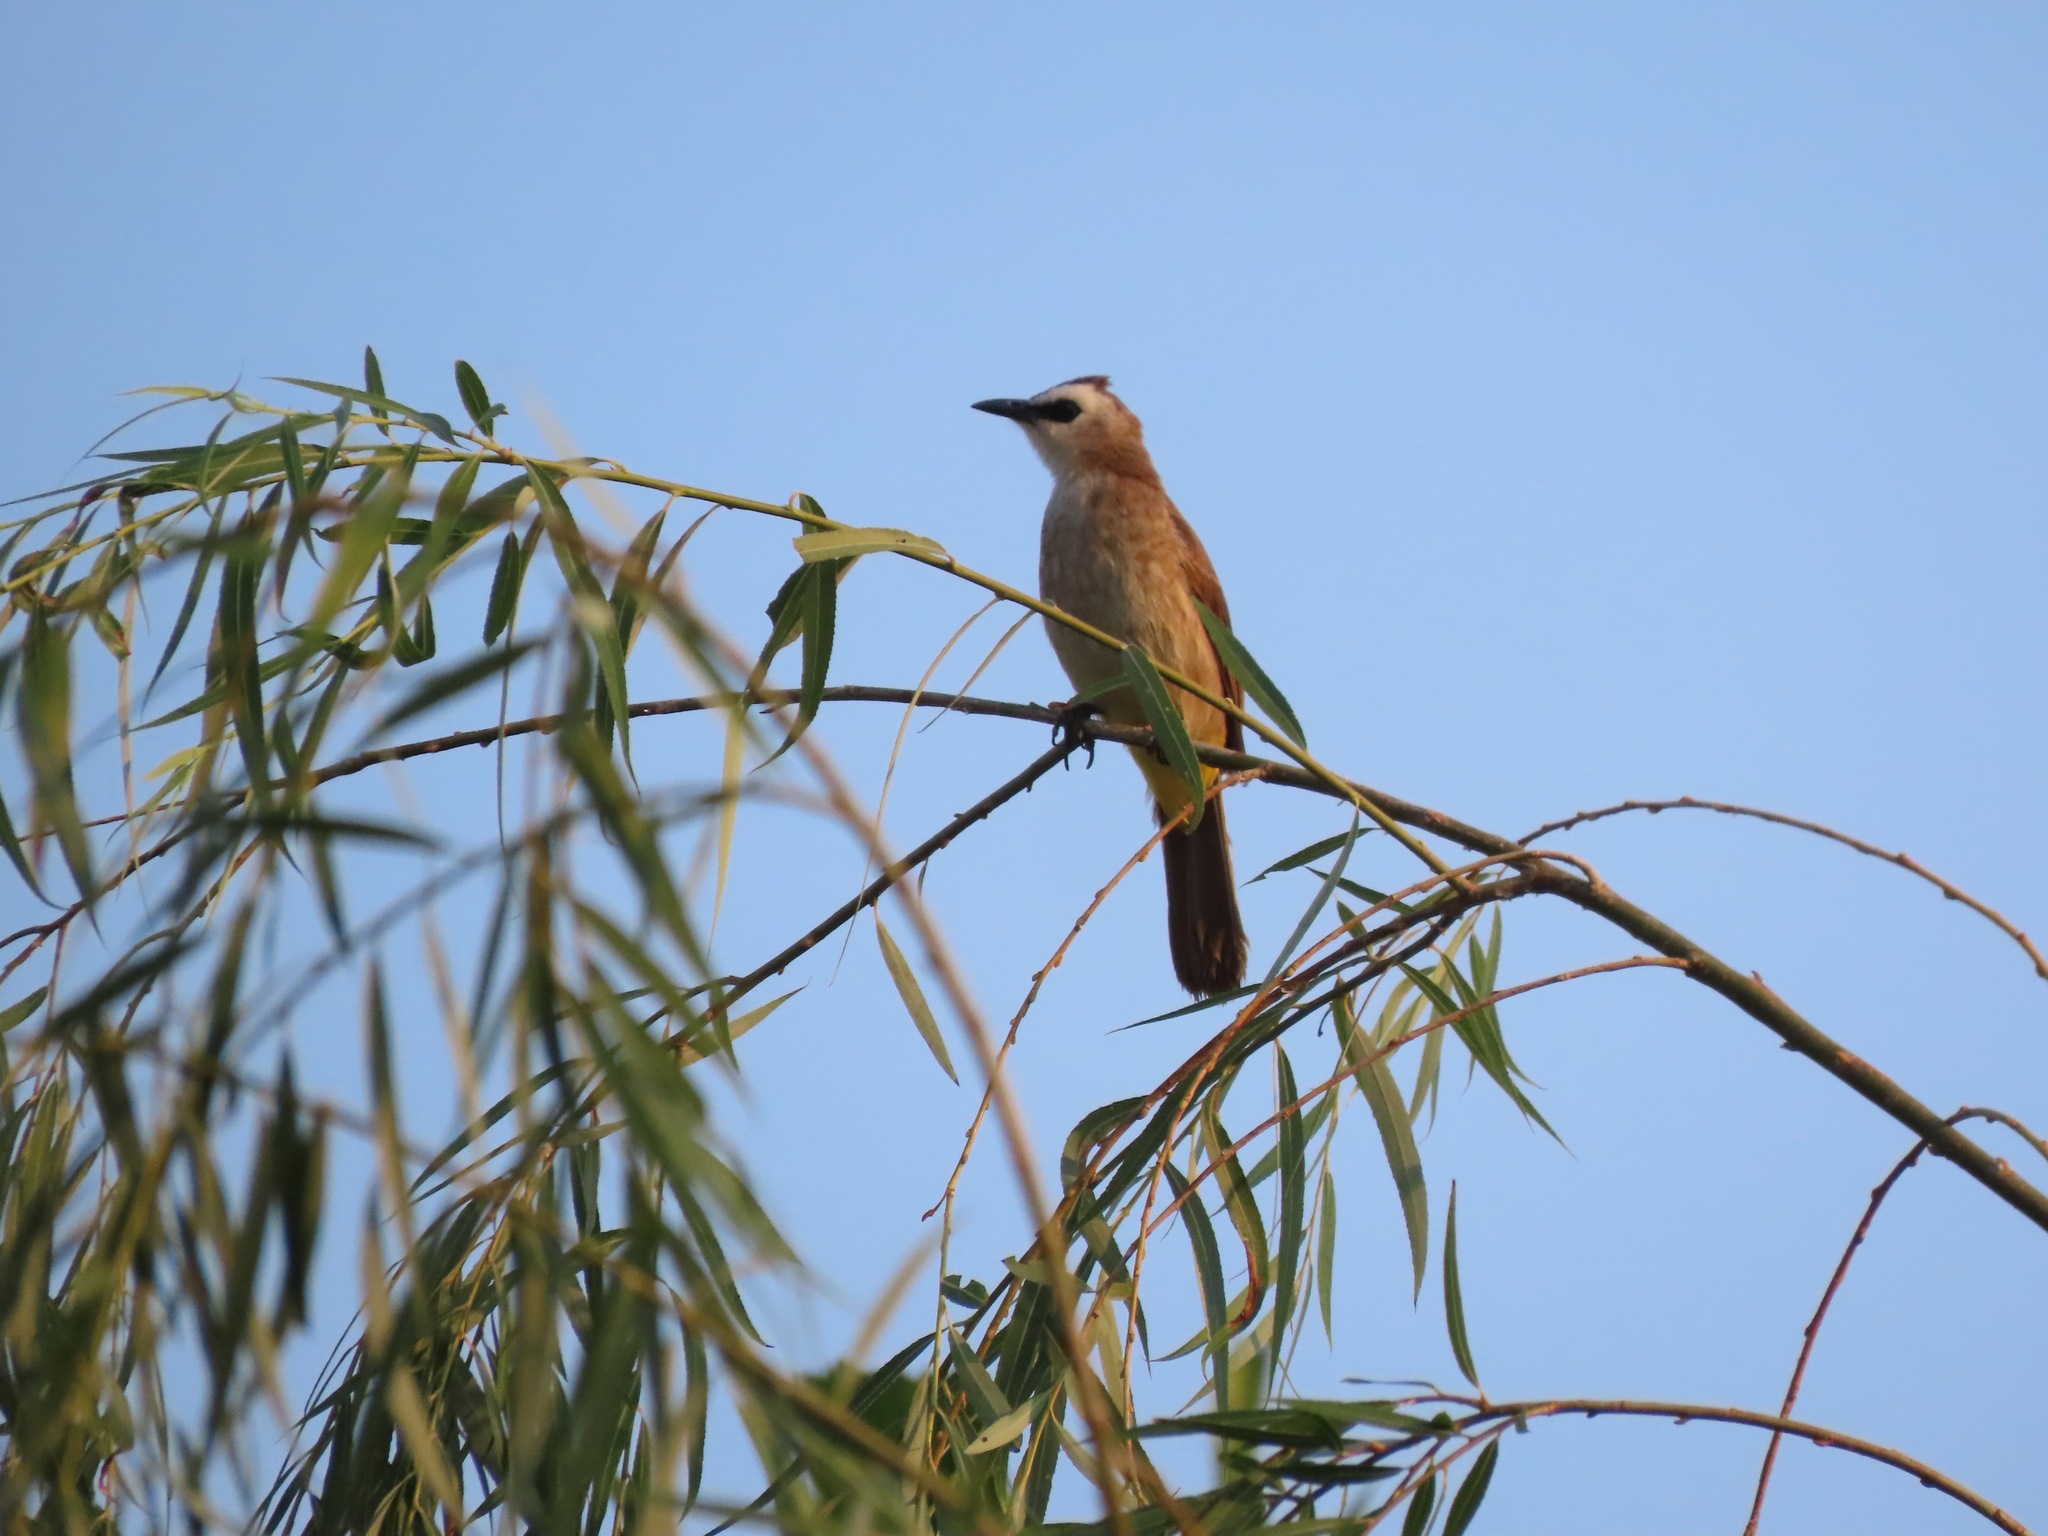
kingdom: Animalia
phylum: Chordata
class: Aves
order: Passeriformes
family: Pycnonotidae
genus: Pycnonotus
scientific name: Pycnonotus goiavier
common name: Yellow-vented bulbul
